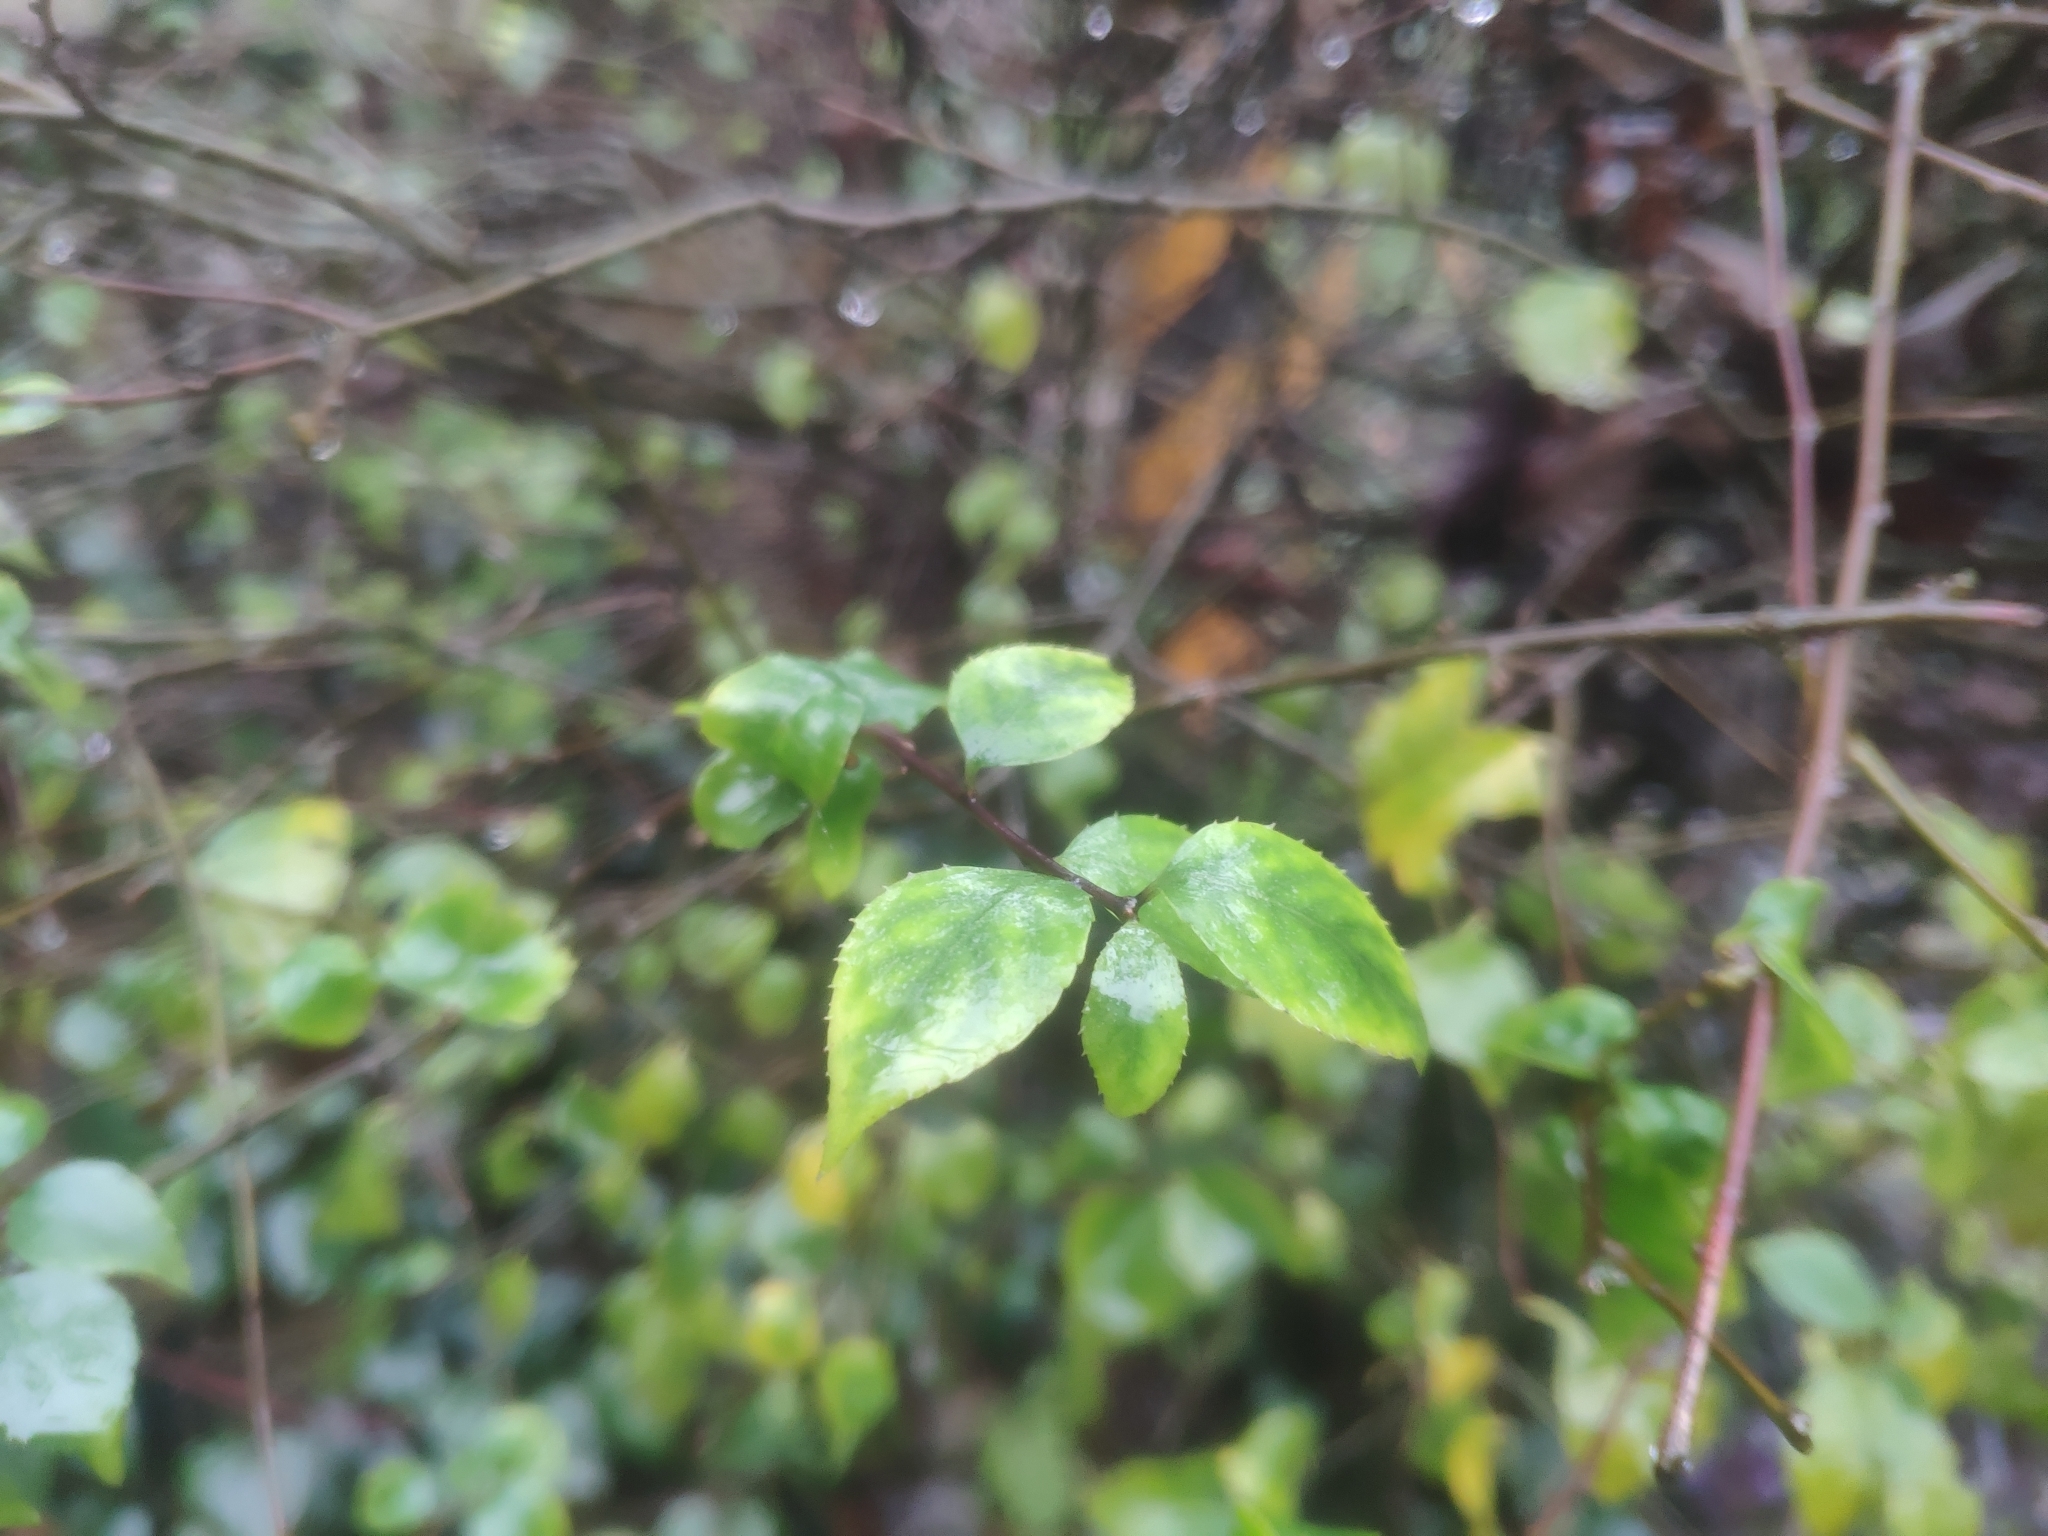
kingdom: Plantae
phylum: Tracheophyta
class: Magnoliopsida
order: Aquifoliales
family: Aquifoliaceae
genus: Ilex
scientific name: Ilex asprella
